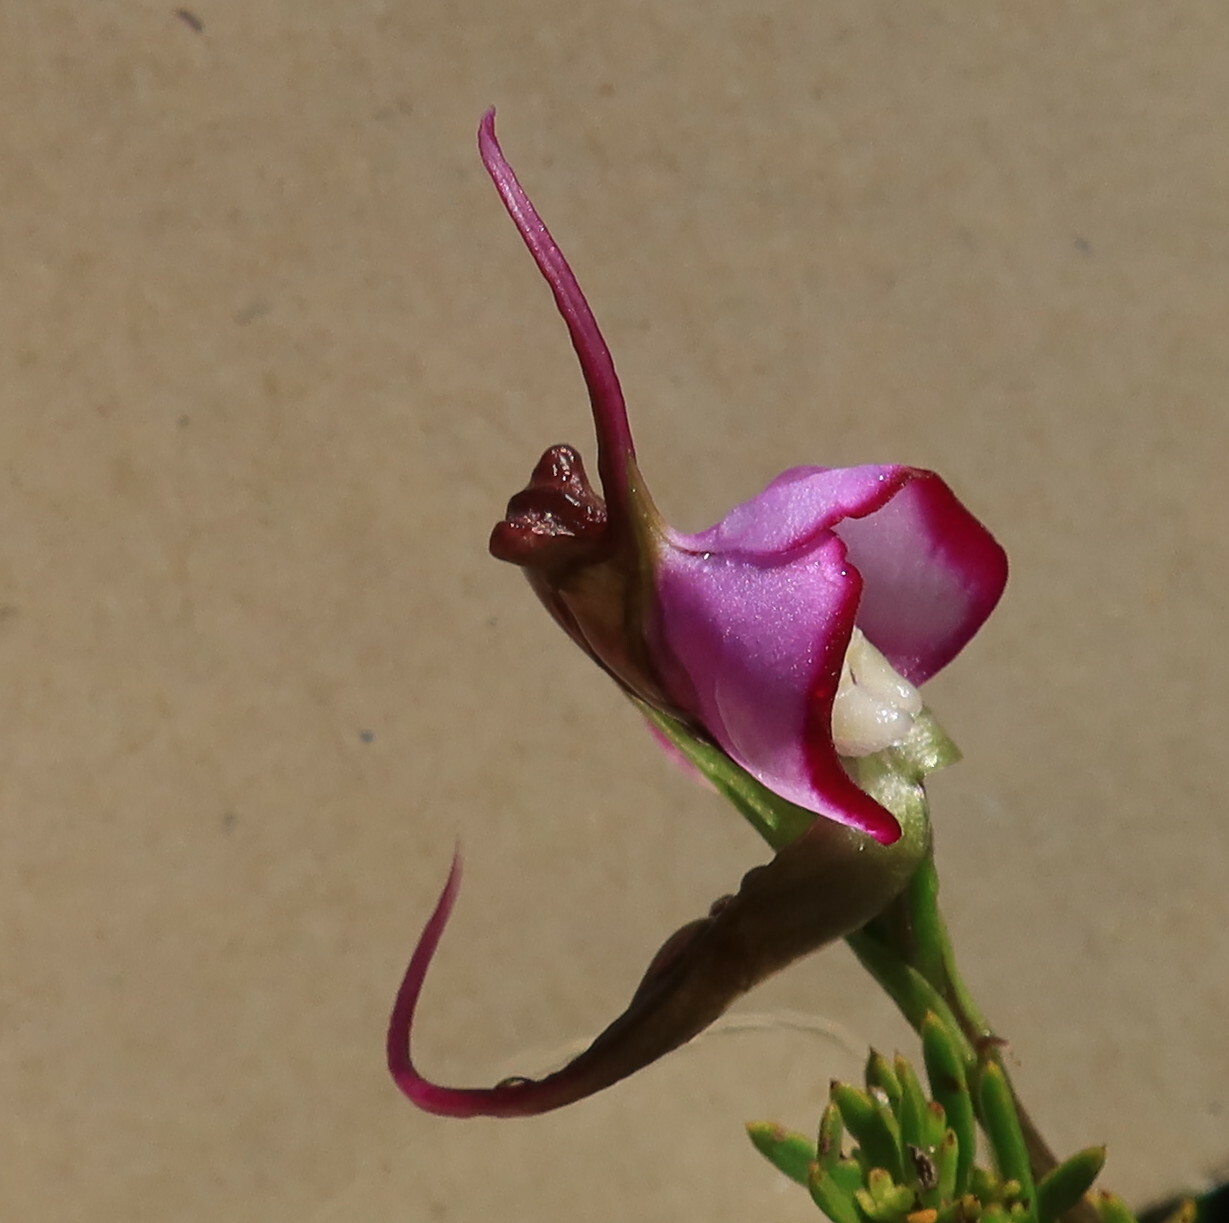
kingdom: Plantae
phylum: Tracheophyta
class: Liliopsida
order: Asparagales
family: Orchidaceae
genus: Disperis
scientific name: Disperis capensis
